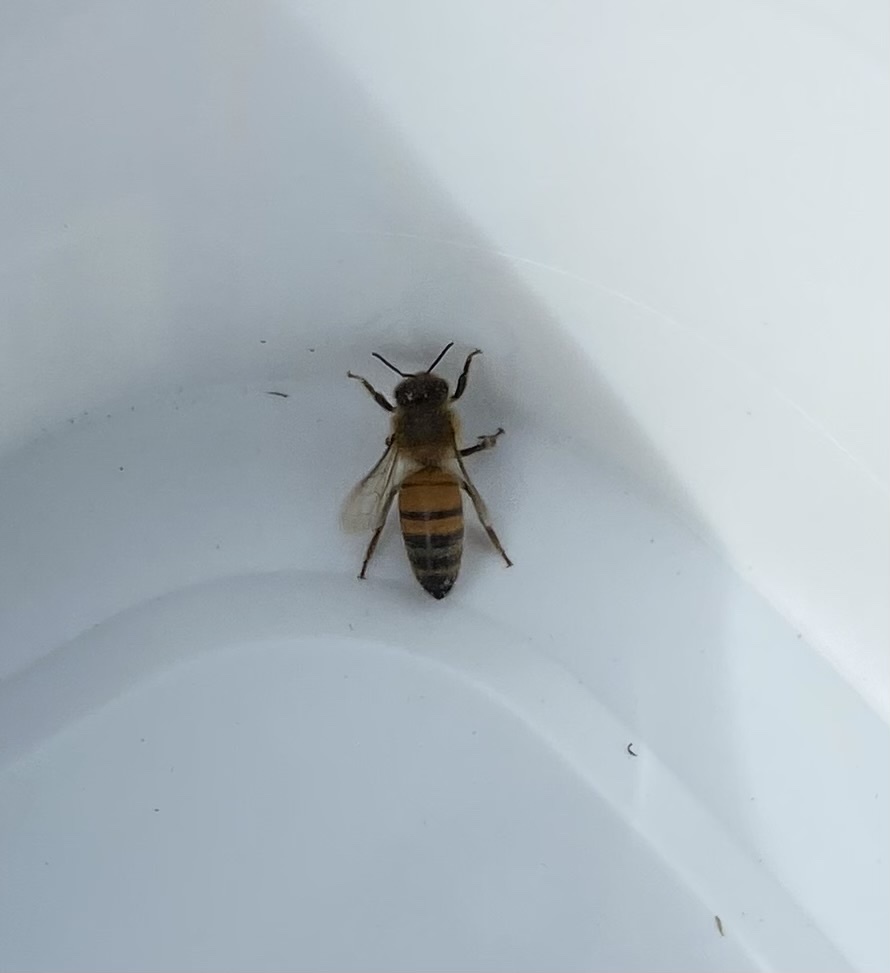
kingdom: Animalia
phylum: Arthropoda
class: Insecta
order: Hymenoptera
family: Apidae
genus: Apis
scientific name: Apis mellifera
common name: Honey bee
